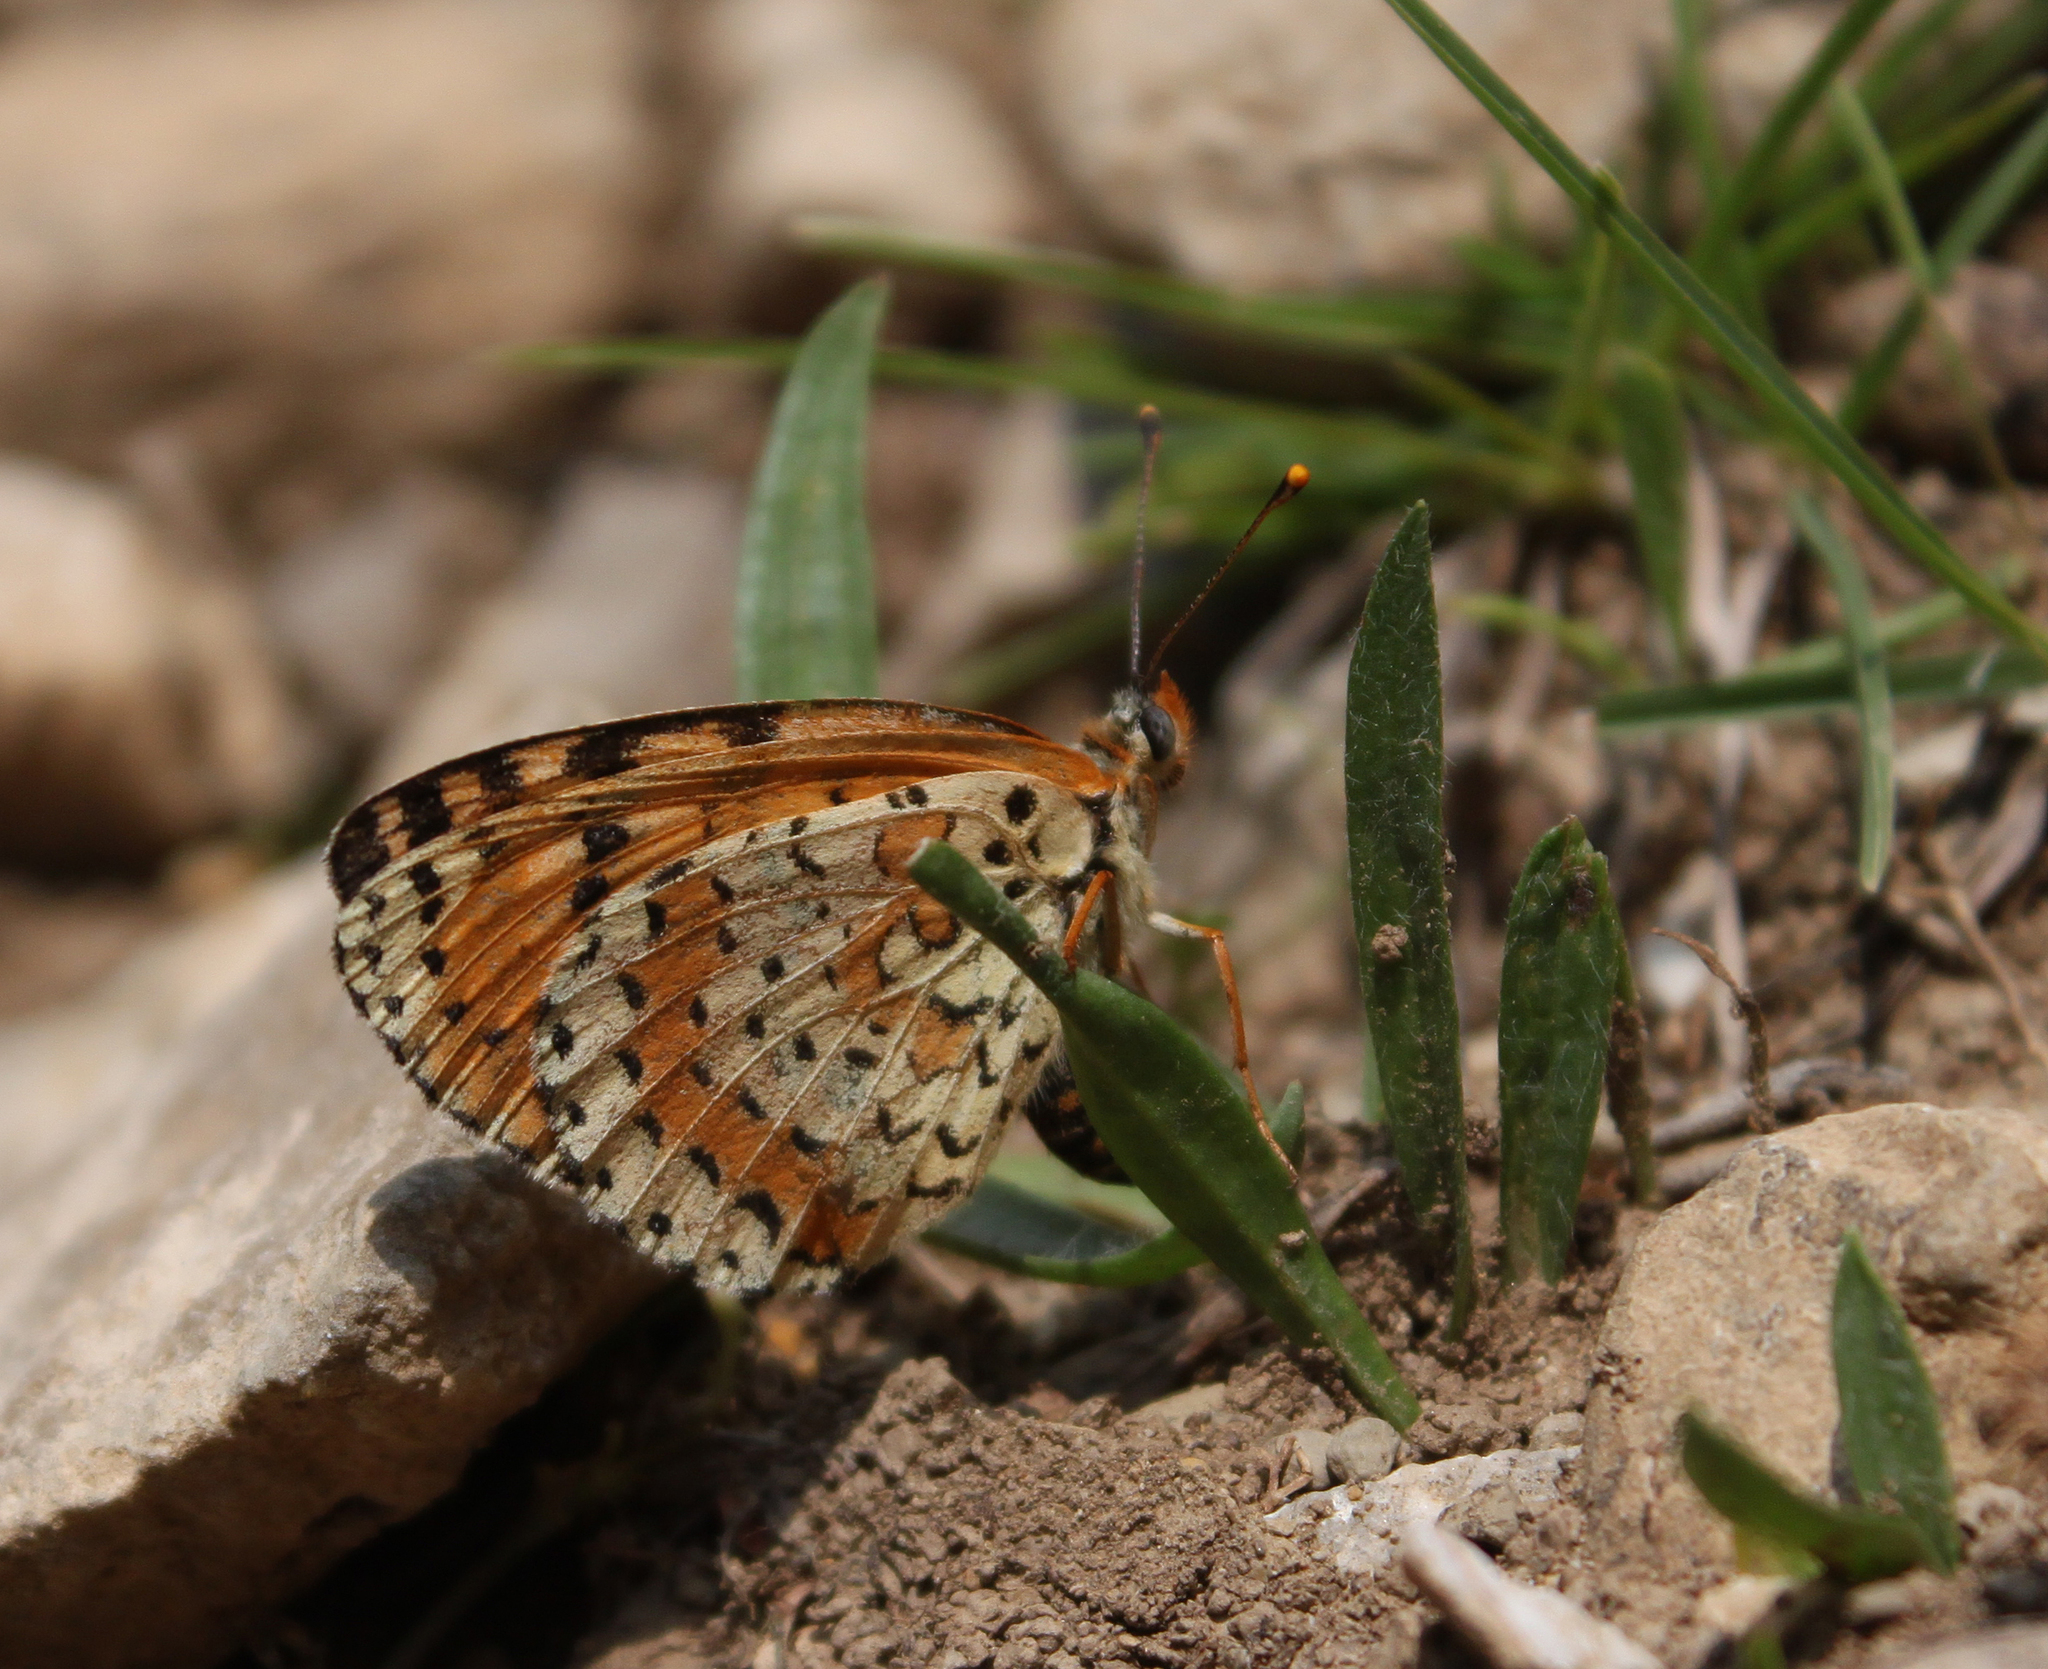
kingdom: Animalia
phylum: Arthropoda
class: Insecta
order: Lepidoptera
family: Nymphalidae
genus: Melitaea
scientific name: Melitaea didyma
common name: Spotted fritillary
